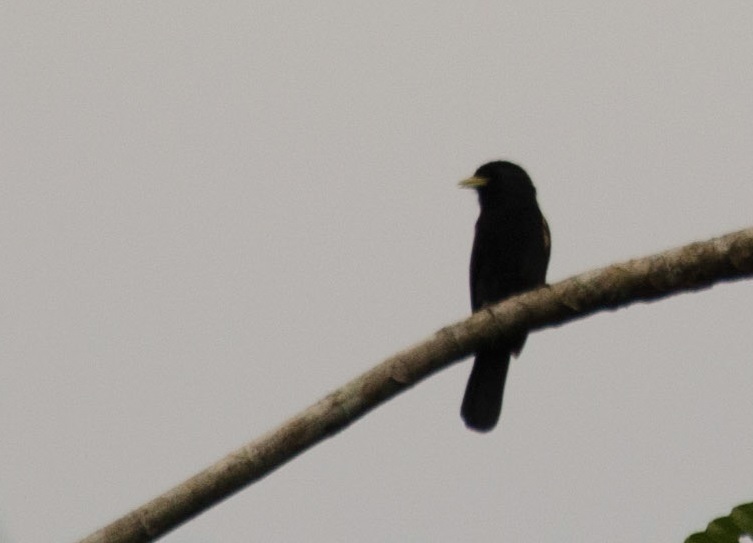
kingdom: Animalia
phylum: Chordata
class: Aves
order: Piciformes
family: Bucconidae
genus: Monasa
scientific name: Monasa flavirostris
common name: Yellow-billed nunbird
